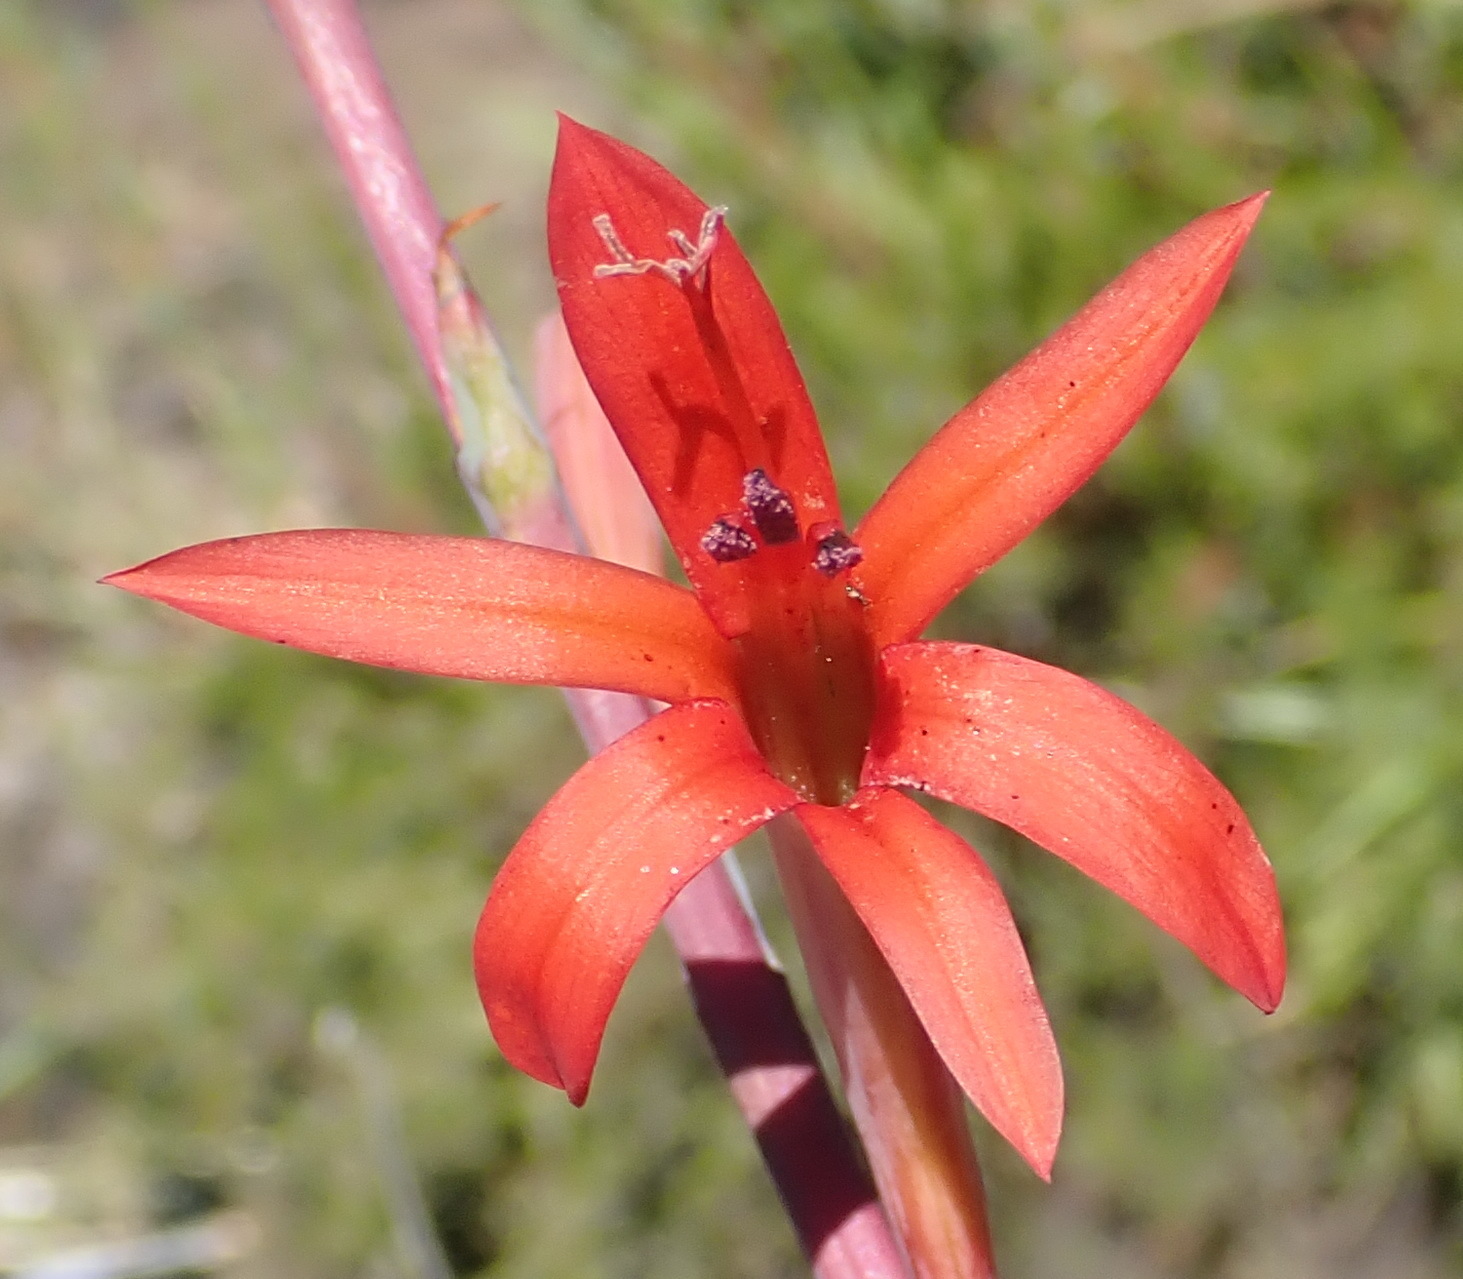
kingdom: Plantae
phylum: Tracheophyta
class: Liliopsida
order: Asparagales
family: Iridaceae
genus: Watsonia
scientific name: Watsonia angusta
